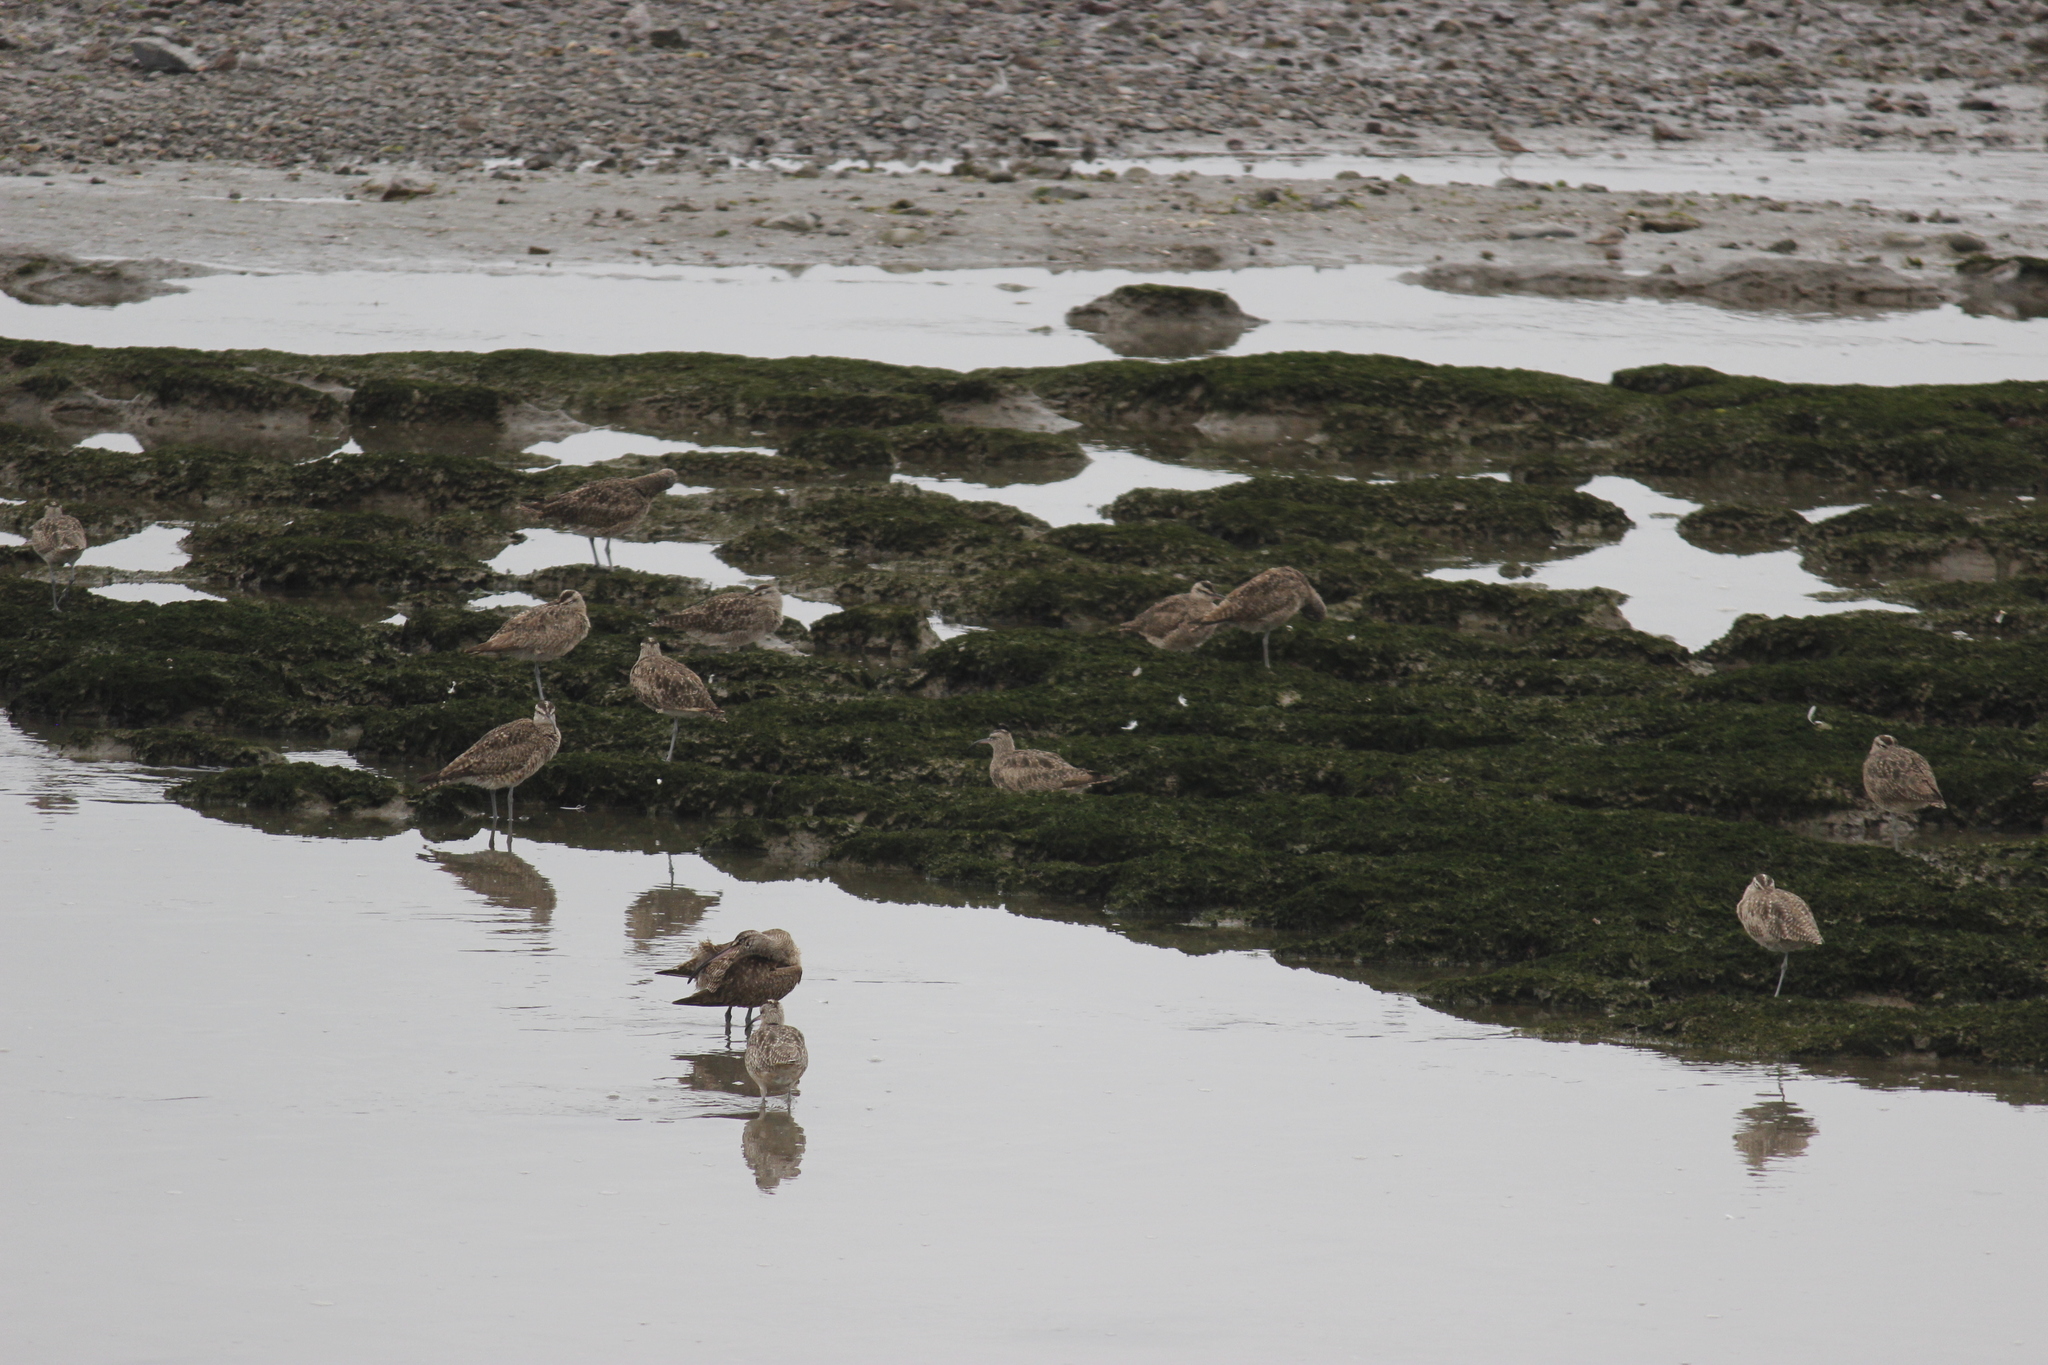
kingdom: Animalia
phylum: Chordata
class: Aves
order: Charadriiformes
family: Scolopacidae
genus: Numenius
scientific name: Numenius phaeopus
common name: Whimbrel
